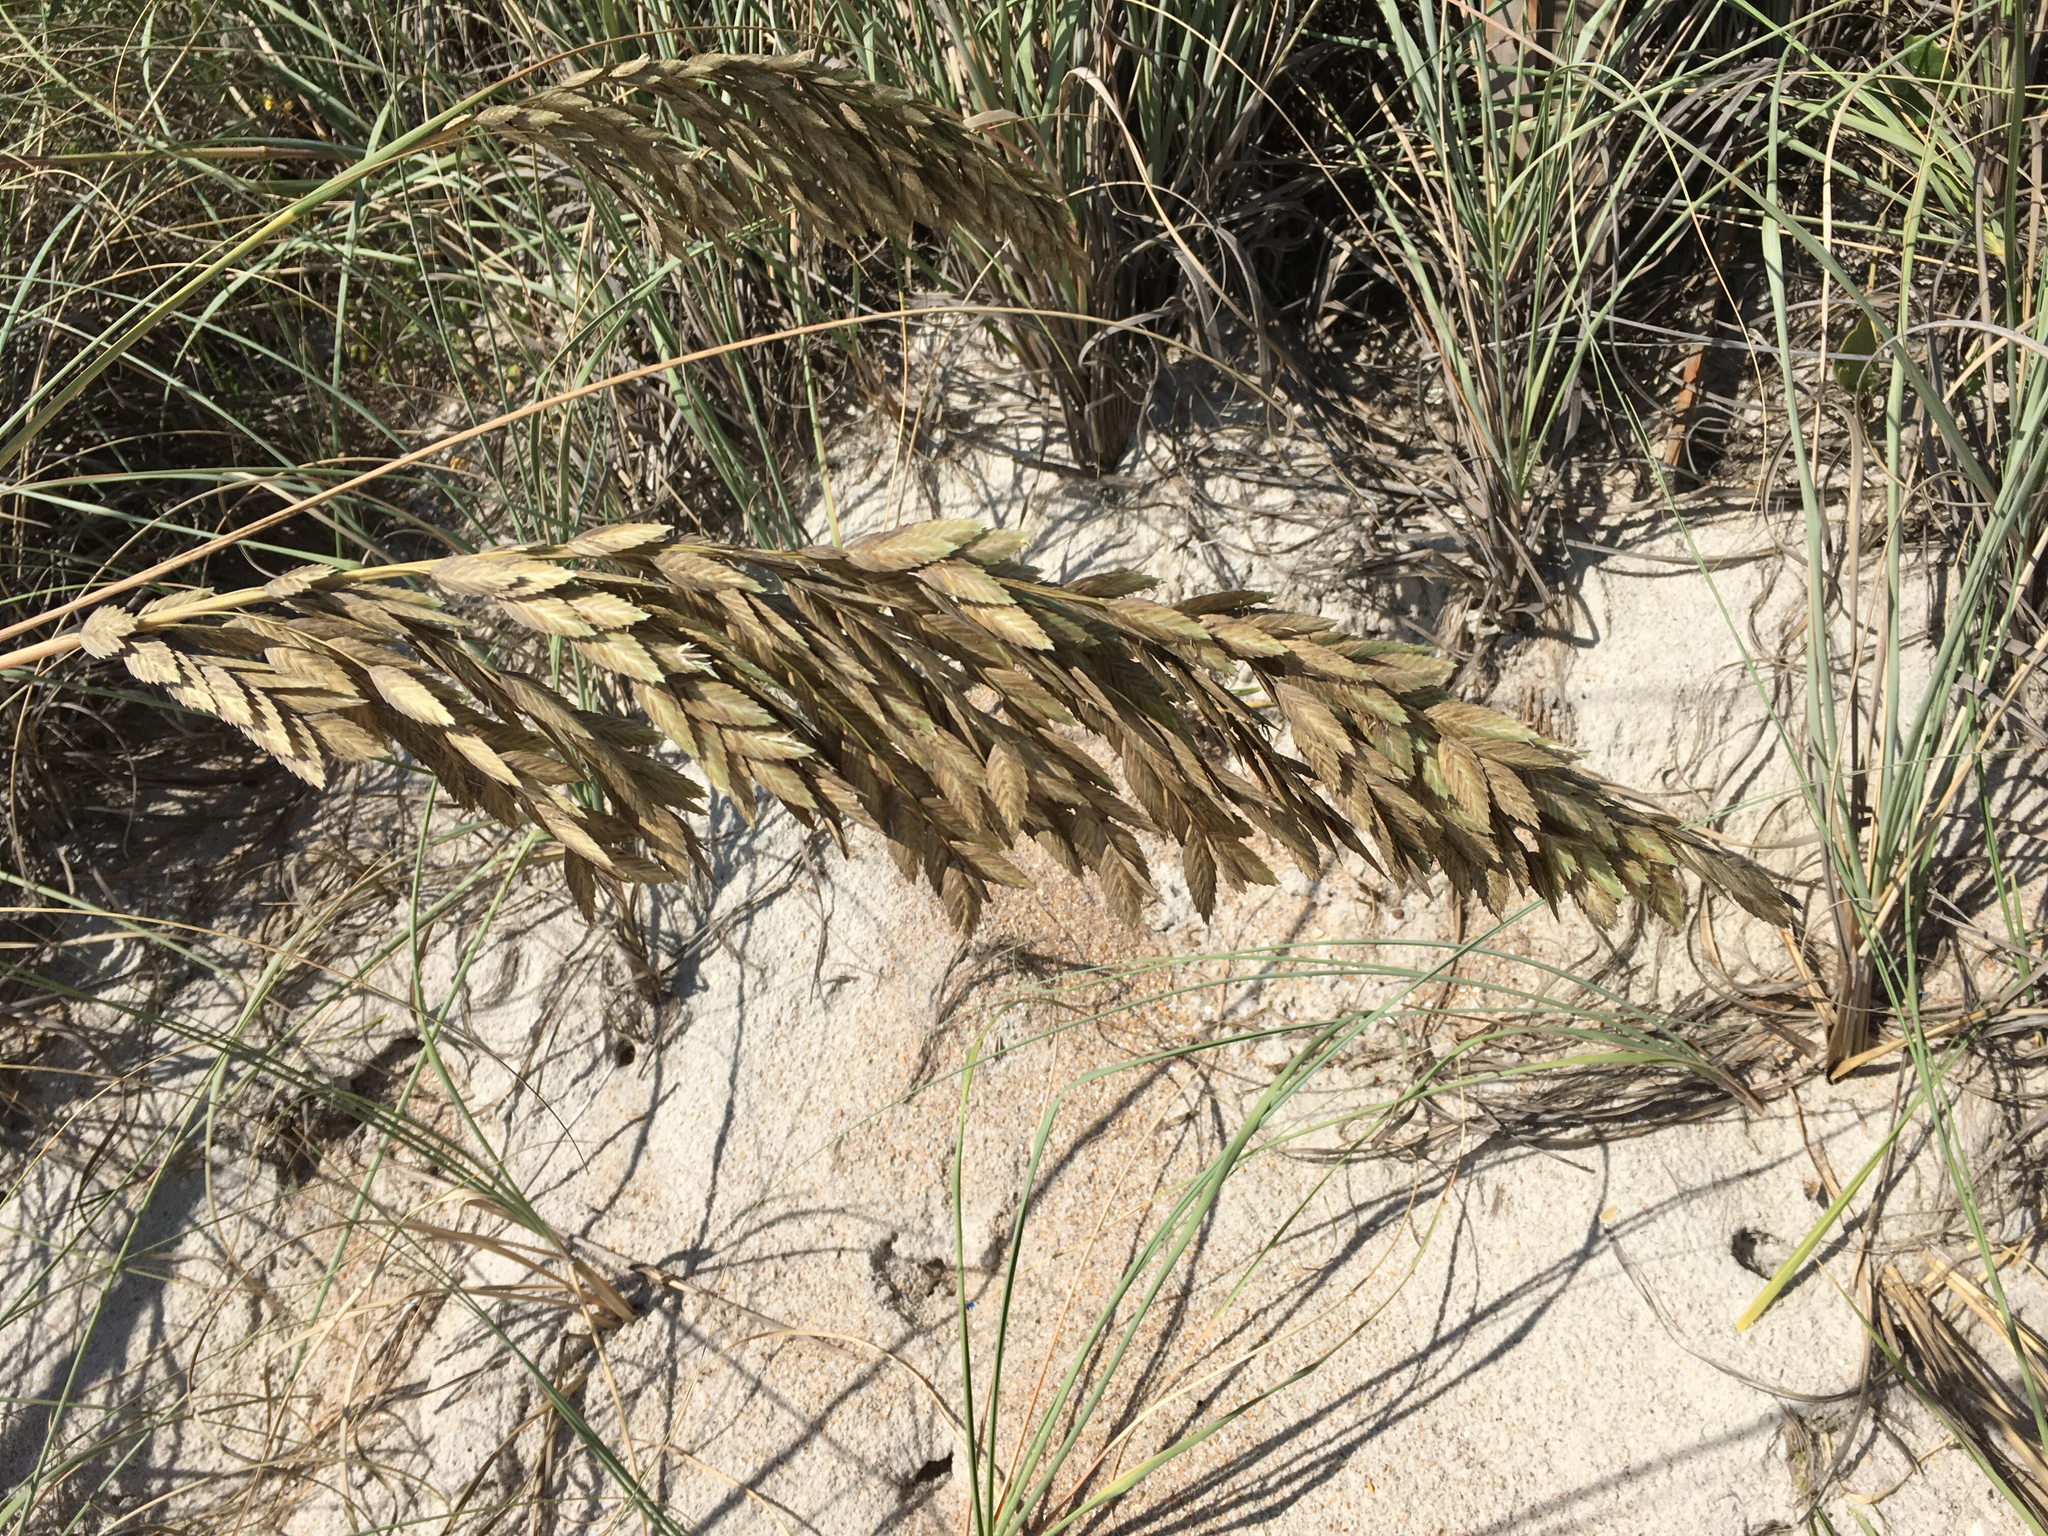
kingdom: Plantae
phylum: Tracheophyta
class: Liliopsida
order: Poales
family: Poaceae
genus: Uniola
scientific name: Uniola paniculata
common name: Seaside-oats
